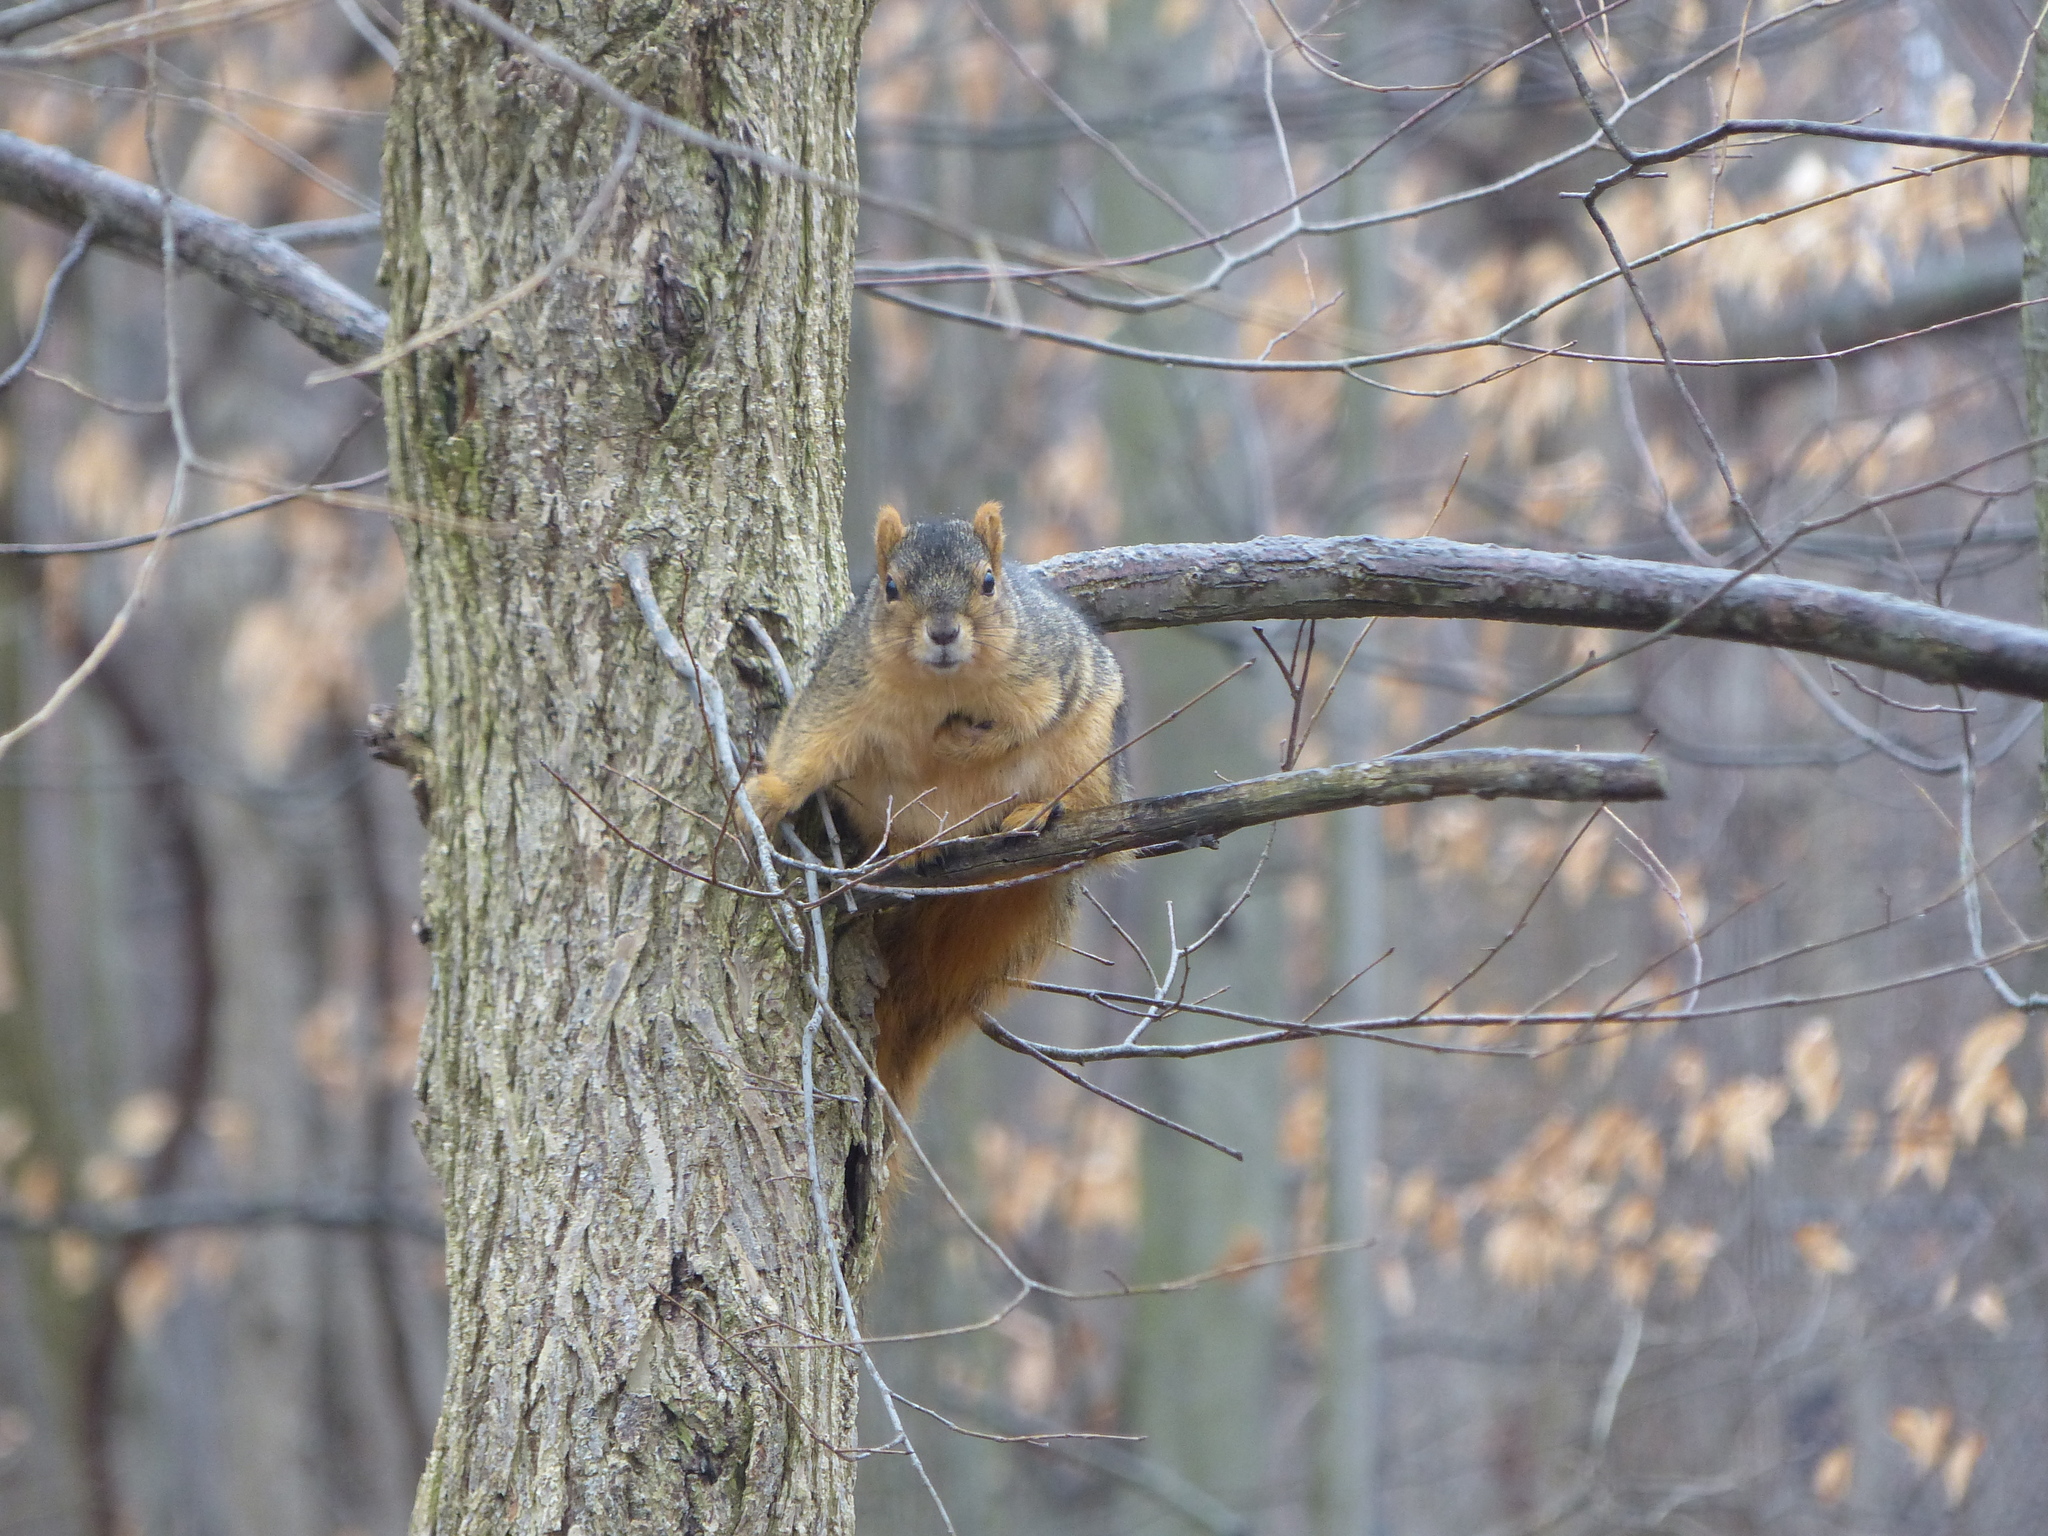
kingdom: Animalia
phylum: Chordata
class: Mammalia
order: Rodentia
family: Sciuridae
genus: Sciurus
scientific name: Sciurus niger
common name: Fox squirrel
